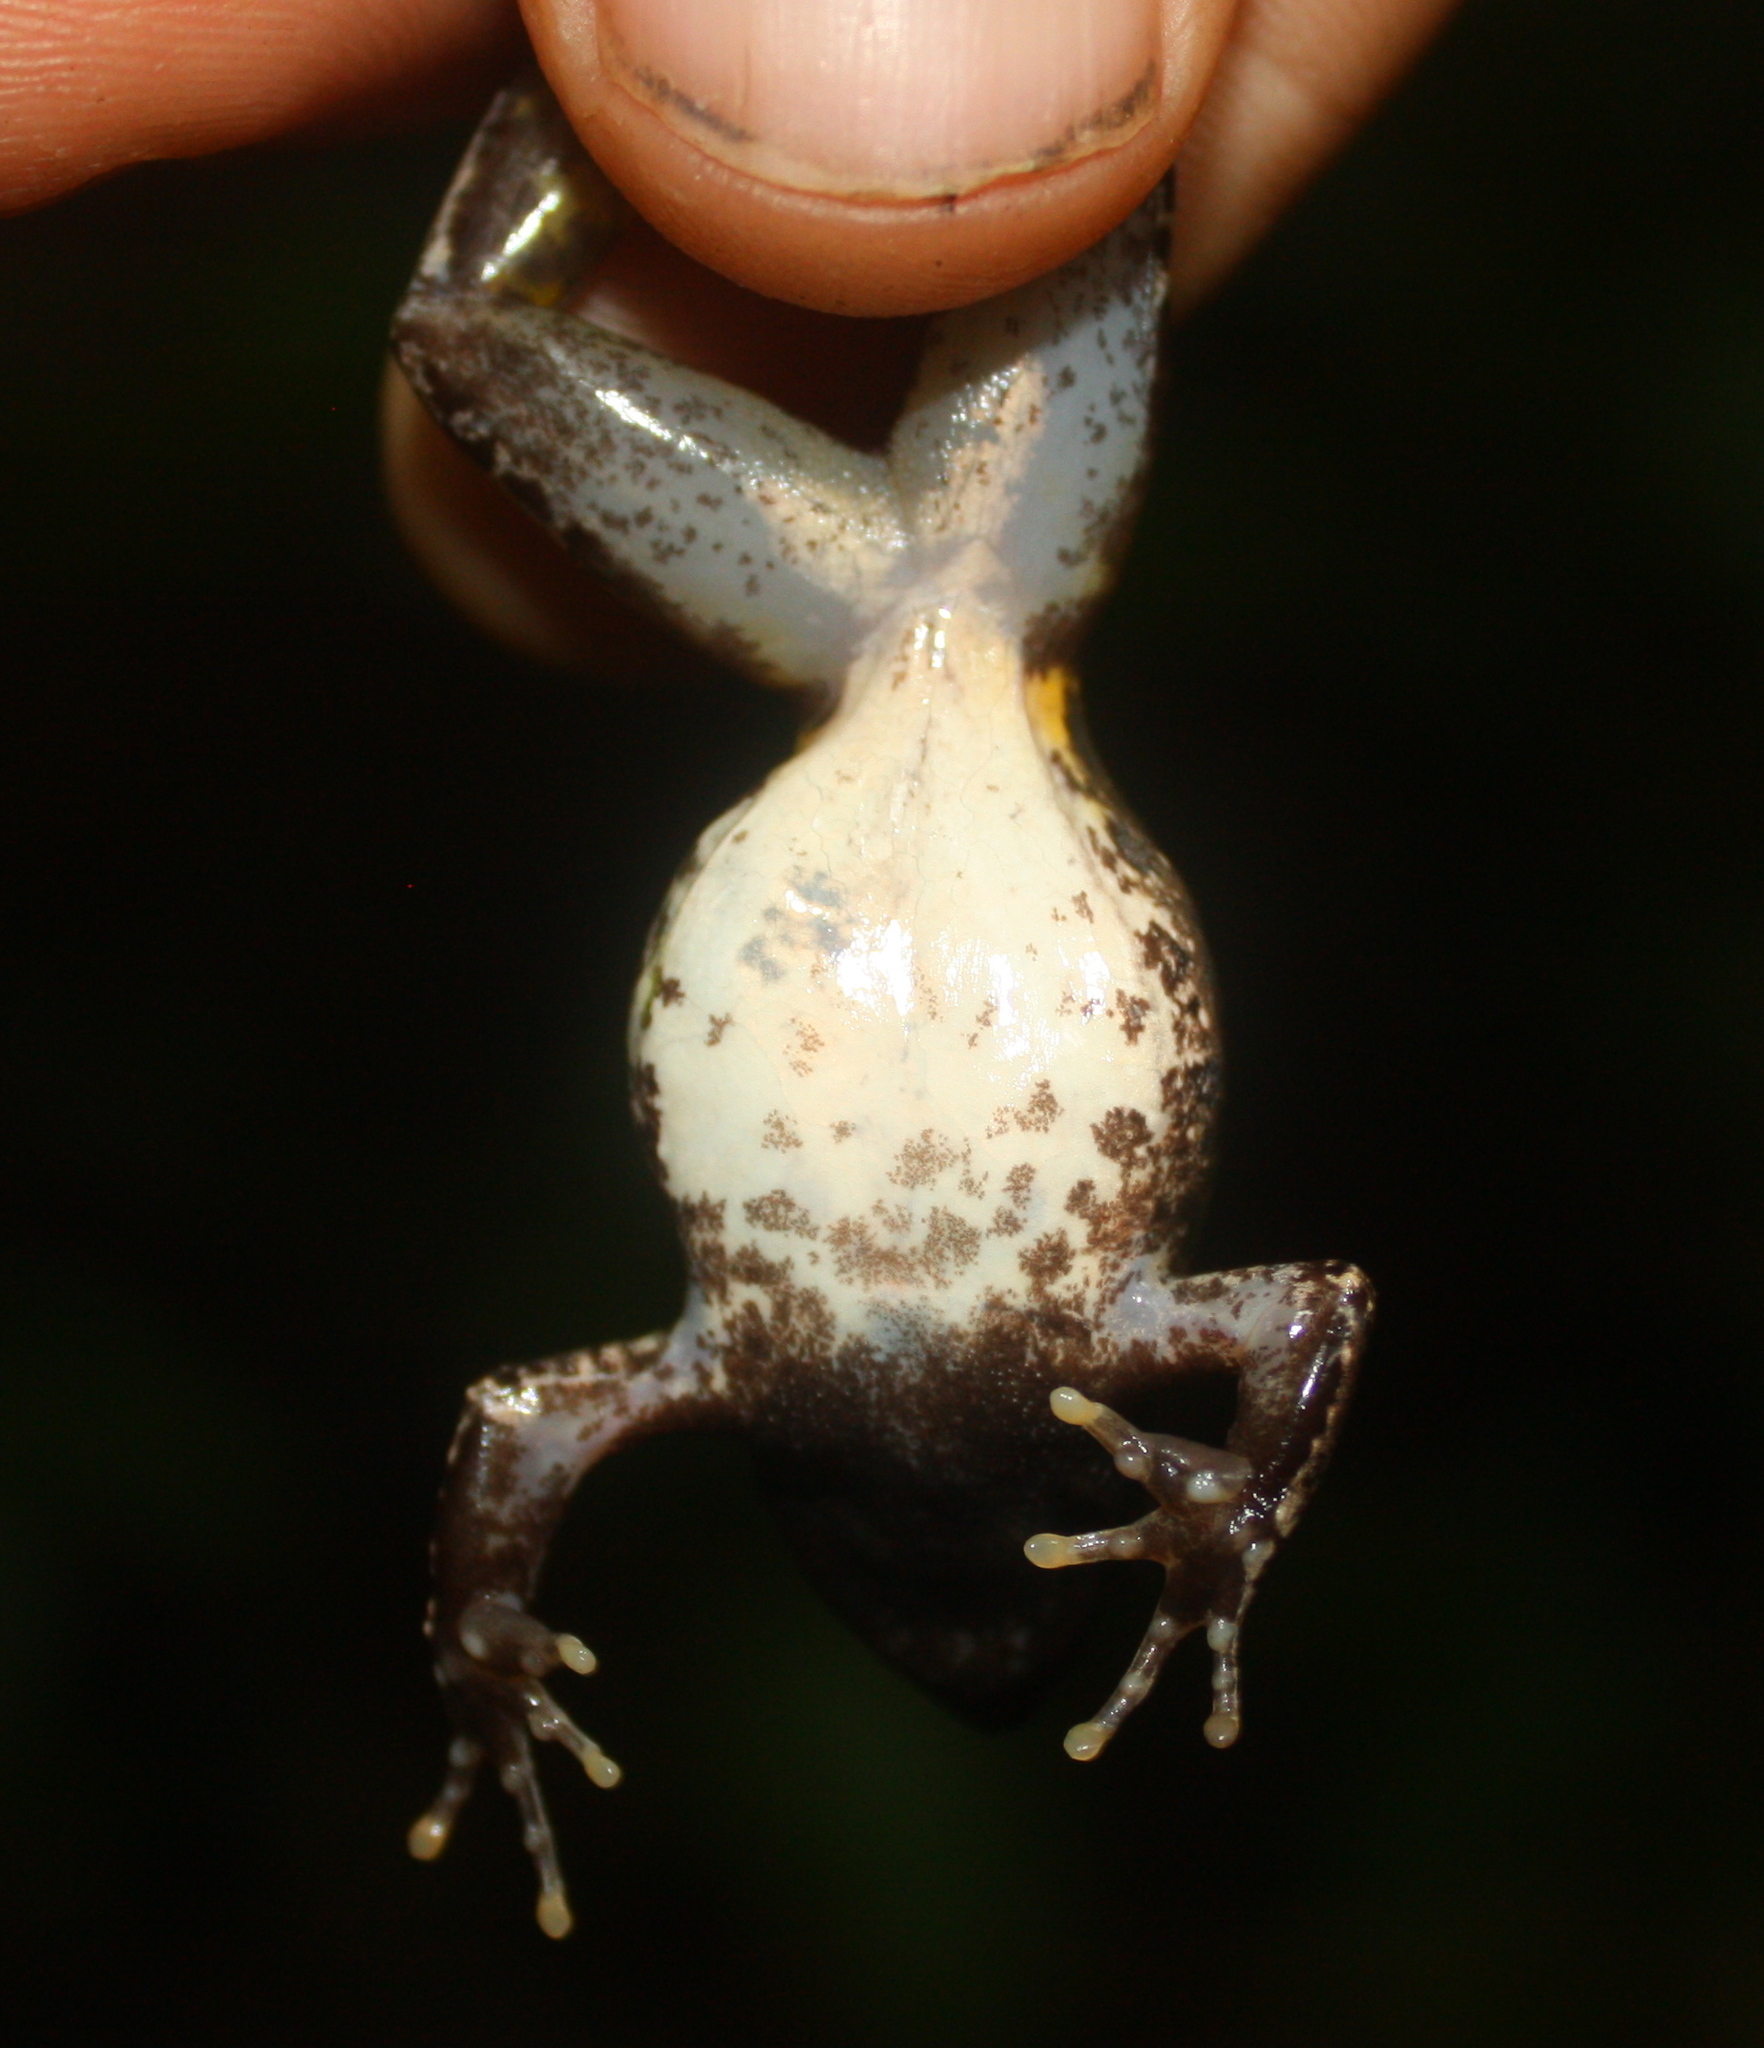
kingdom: Animalia
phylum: Chordata
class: Amphibia
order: Anura
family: Phrynobatrachidae
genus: Phrynobatrachus
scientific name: Phrynobatrachus plicatus
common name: Coast river frog
